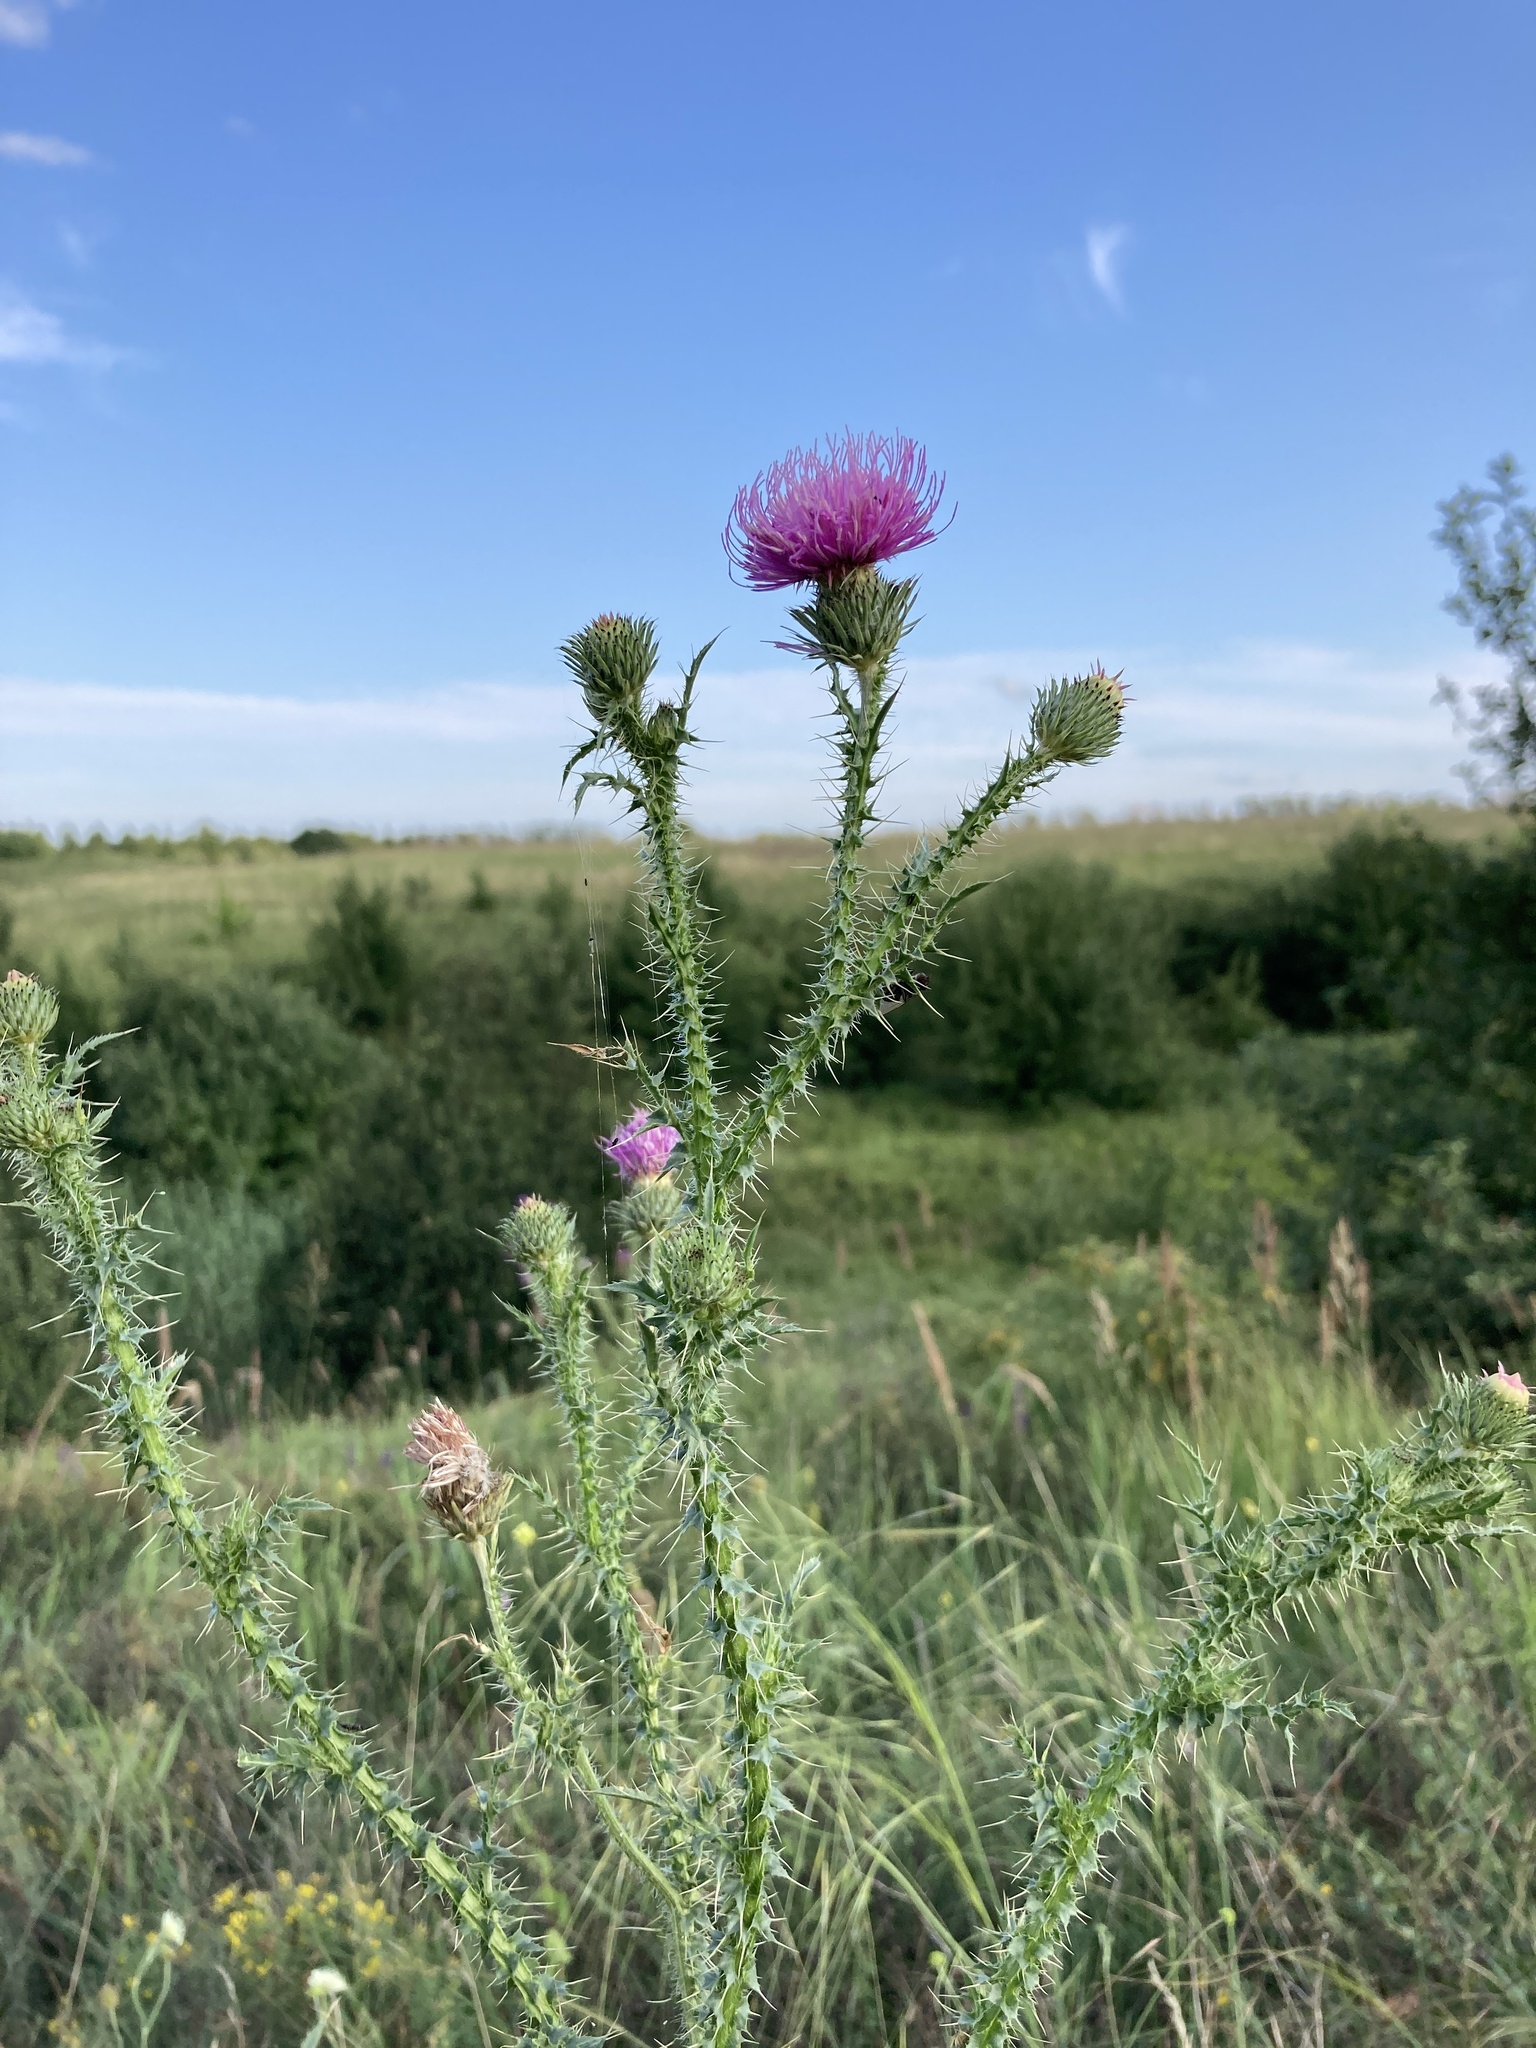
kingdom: Plantae
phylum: Tracheophyta
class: Magnoliopsida
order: Asterales
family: Asteraceae
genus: Carduus
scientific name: Carduus acanthoides
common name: Plumeless thistle
